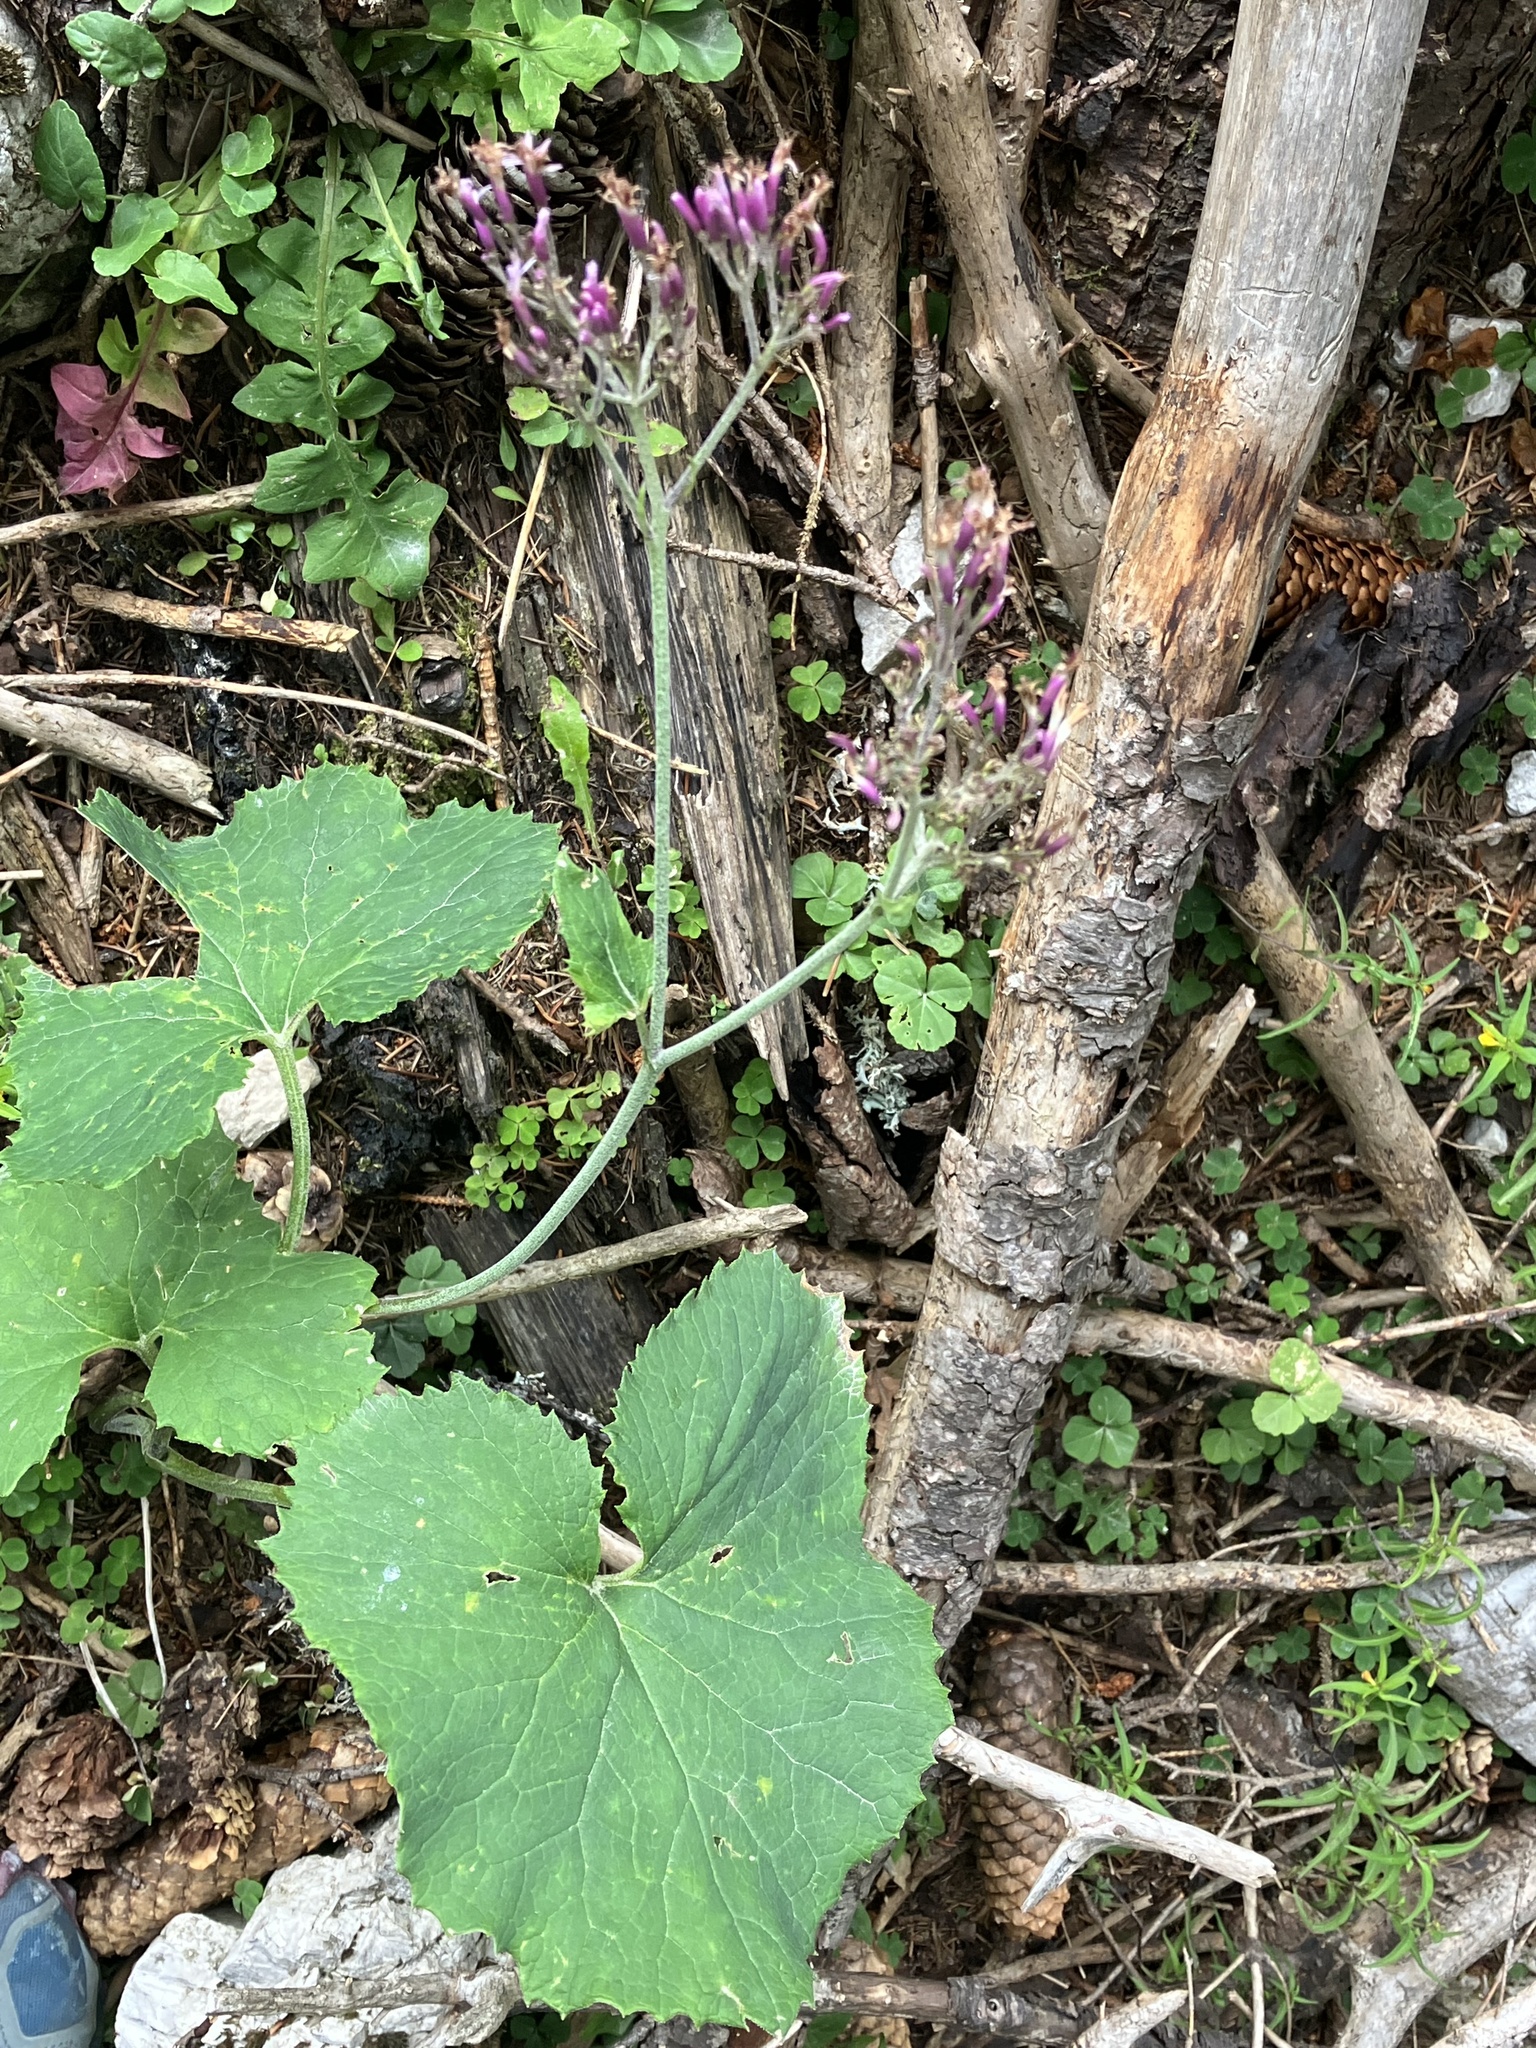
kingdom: Plantae
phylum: Tracheophyta
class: Magnoliopsida
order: Asterales
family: Asteraceae
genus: Adenostyles
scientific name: Adenostyles alpina
